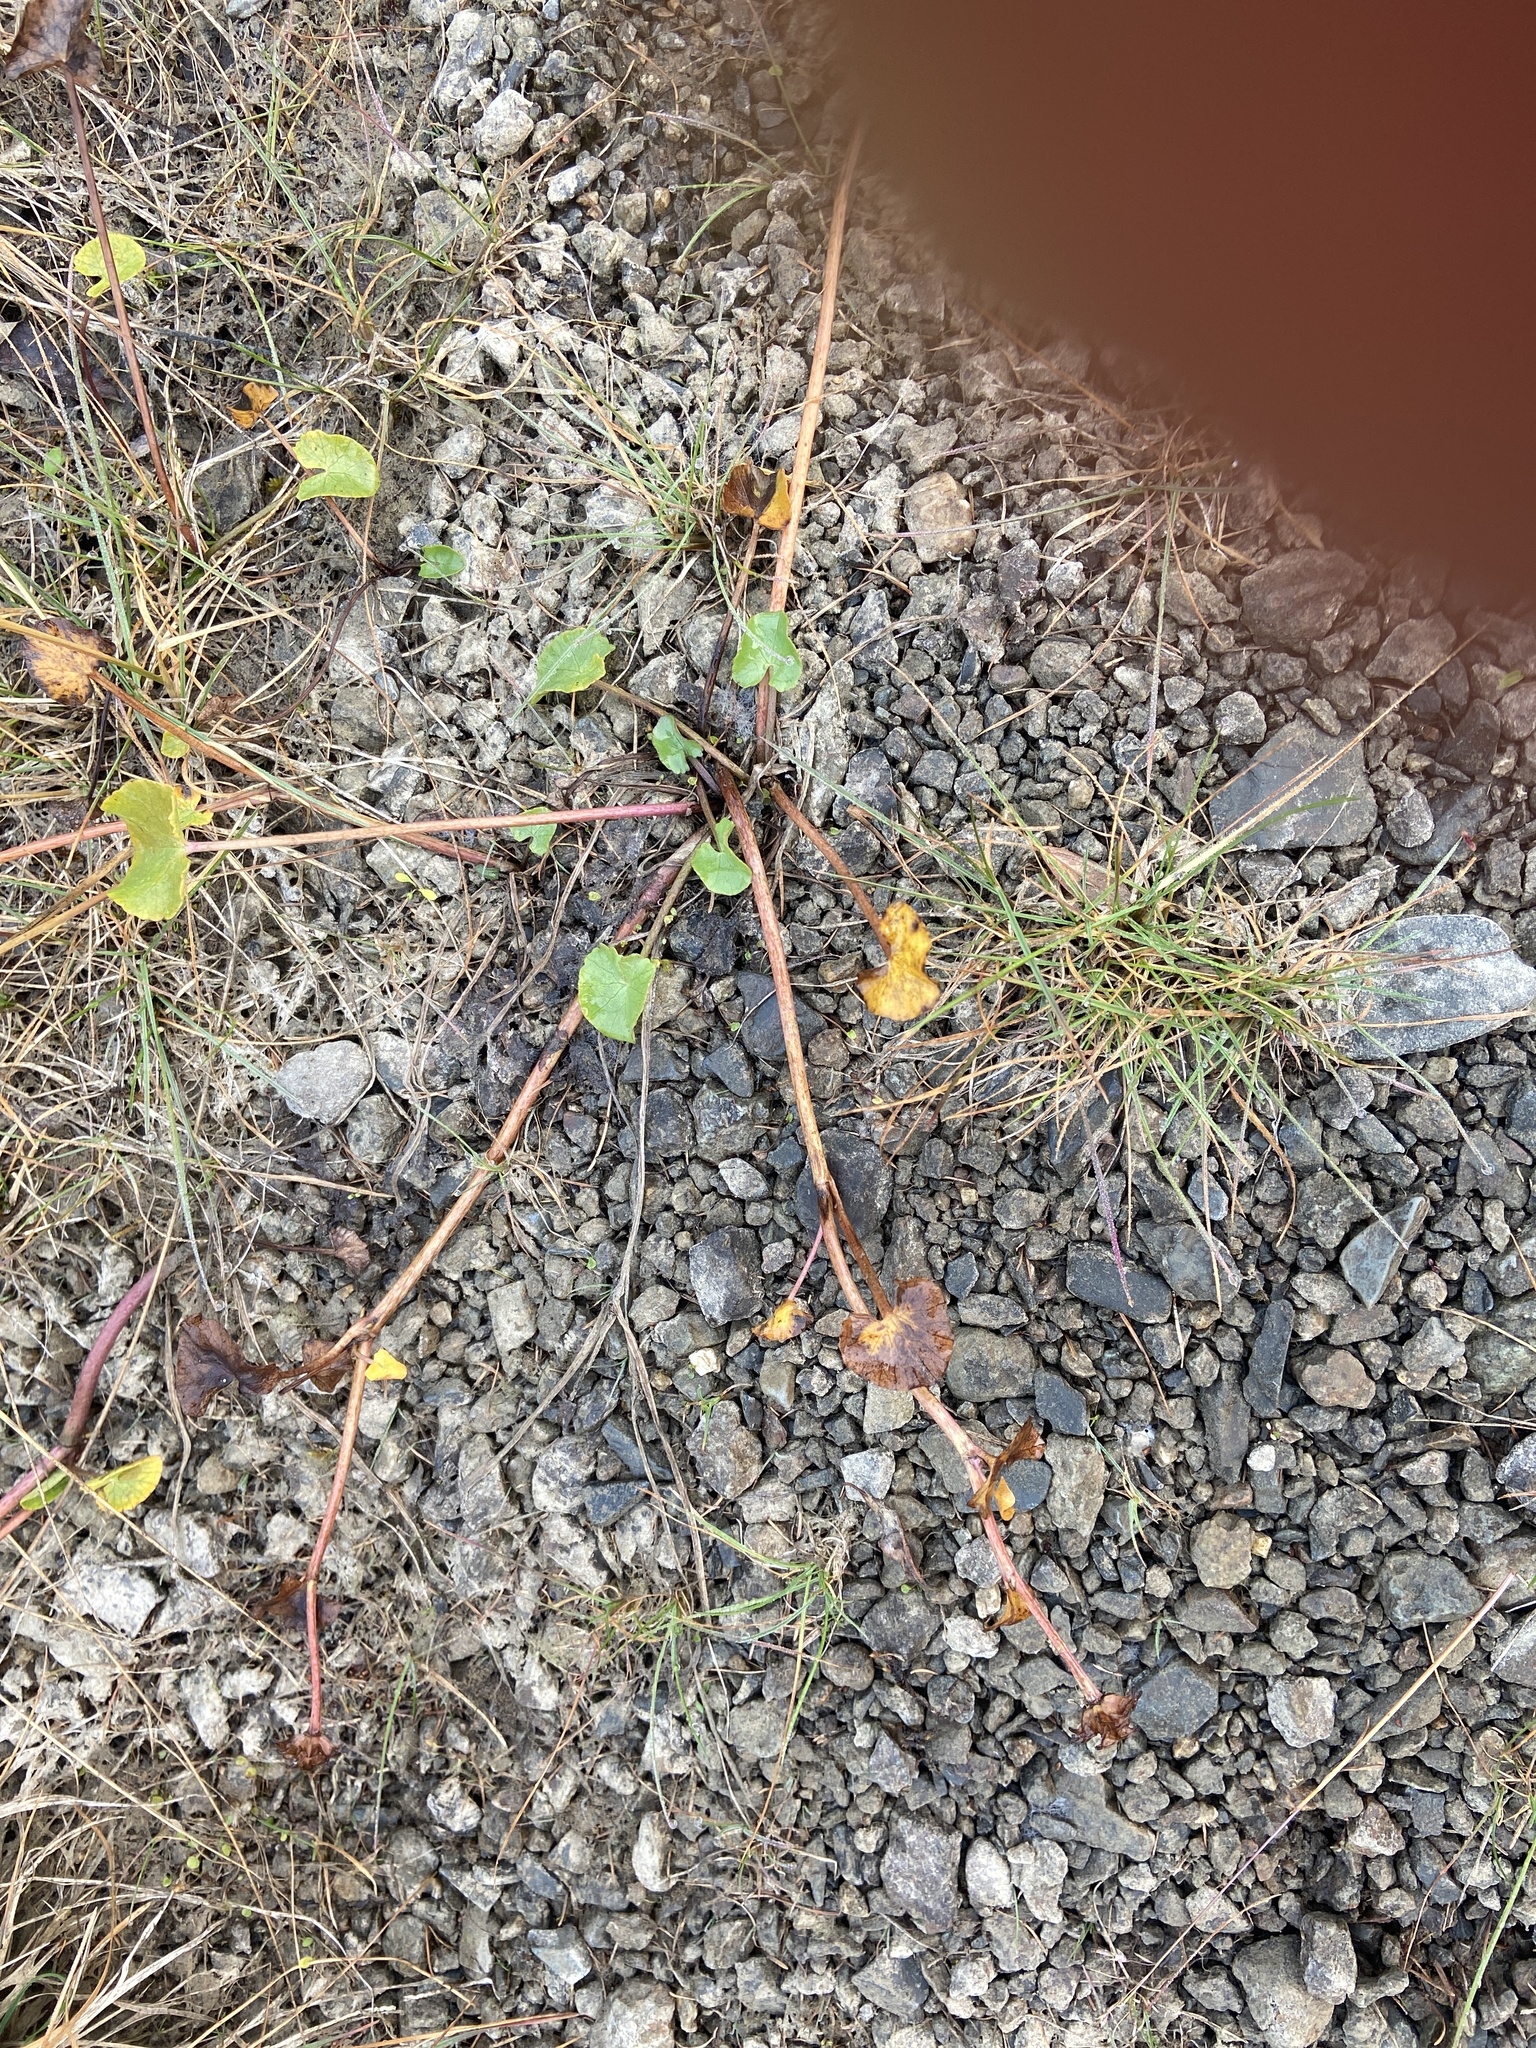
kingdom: Plantae
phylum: Tracheophyta
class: Magnoliopsida
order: Ranunculales
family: Ranunculaceae
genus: Caltha
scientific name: Caltha palustris
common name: Marsh marigold
